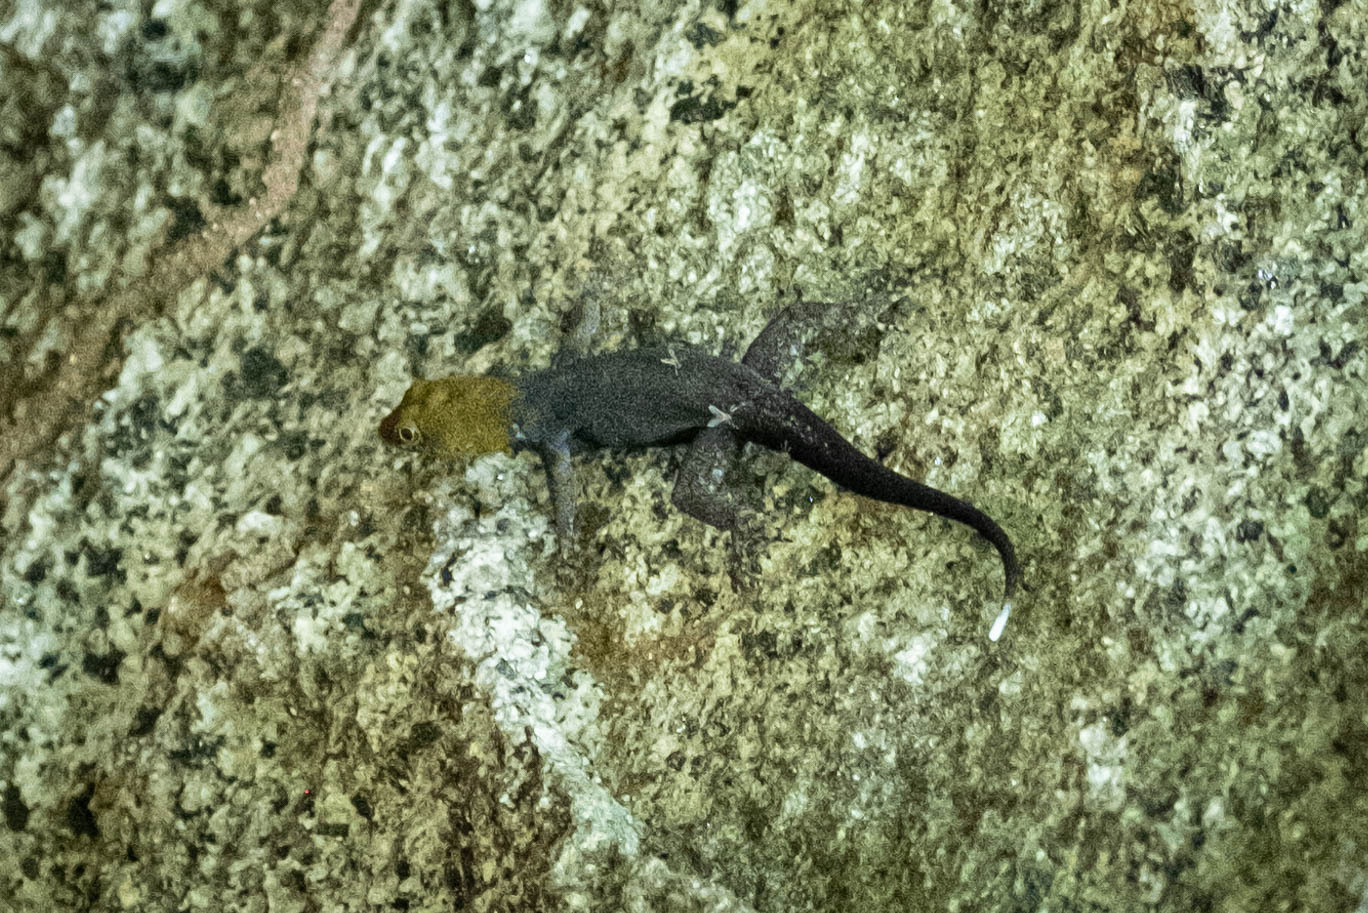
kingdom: Animalia
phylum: Chordata
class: Squamata
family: Sphaerodactylidae
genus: Gonatodes
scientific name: Gonatodes albogularis
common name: Yellow-headed gecko
